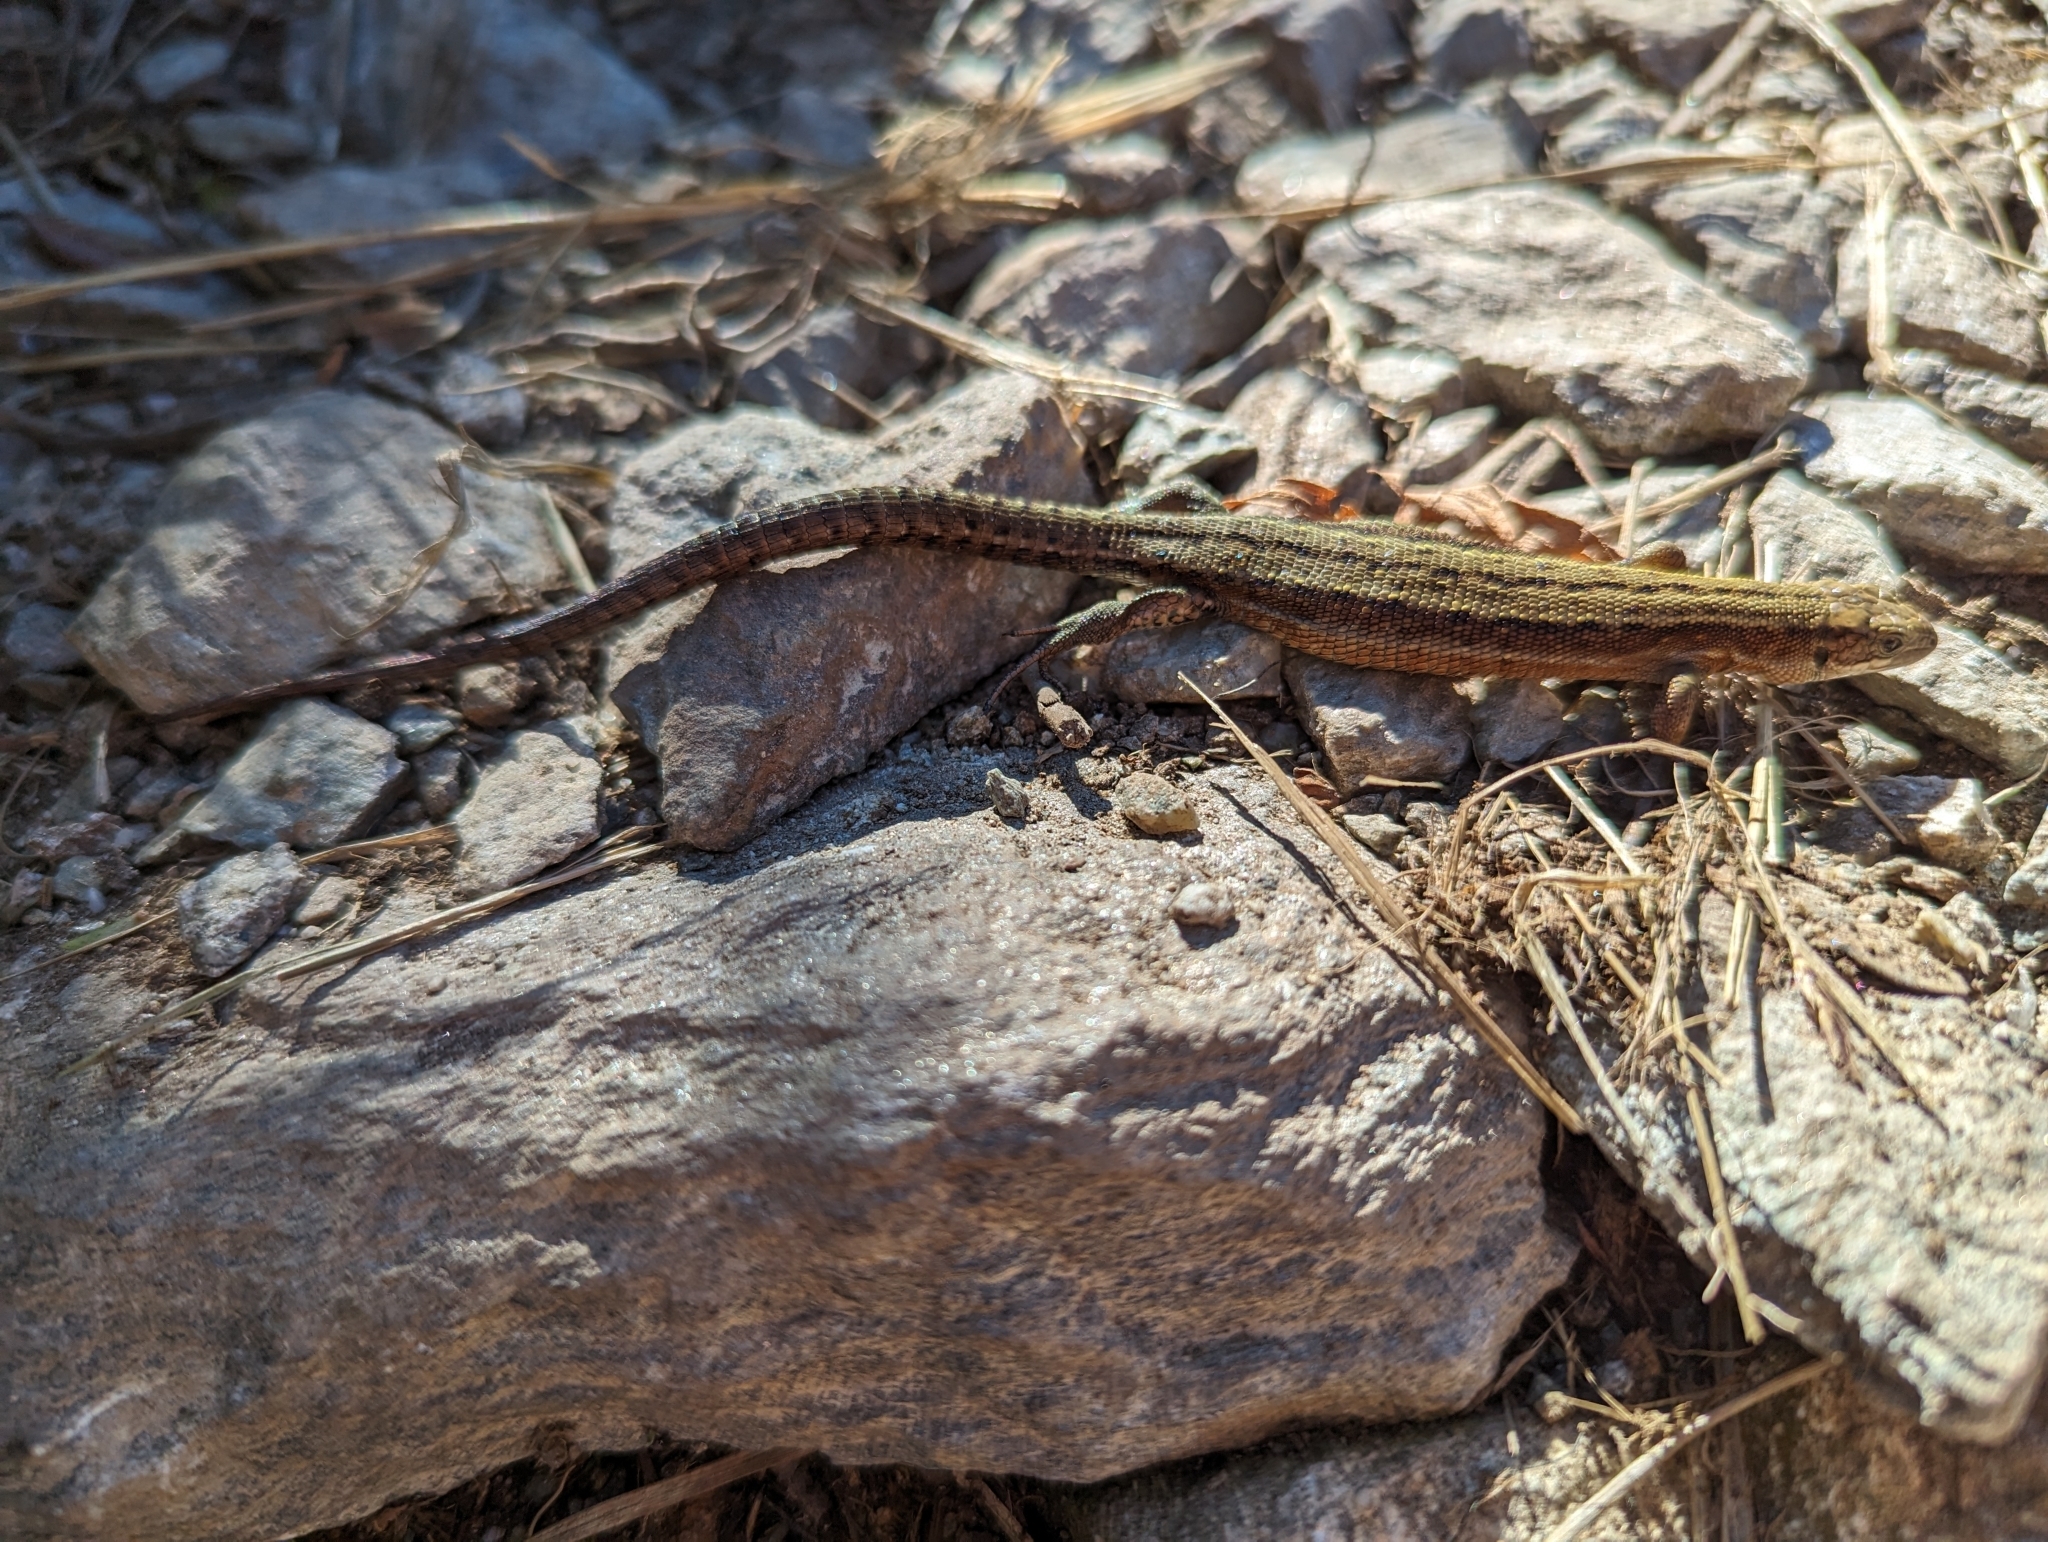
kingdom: Animalia
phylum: Chordata
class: Squamata
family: Lacertidae
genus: Zootoca
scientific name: Zootoca vivipara
